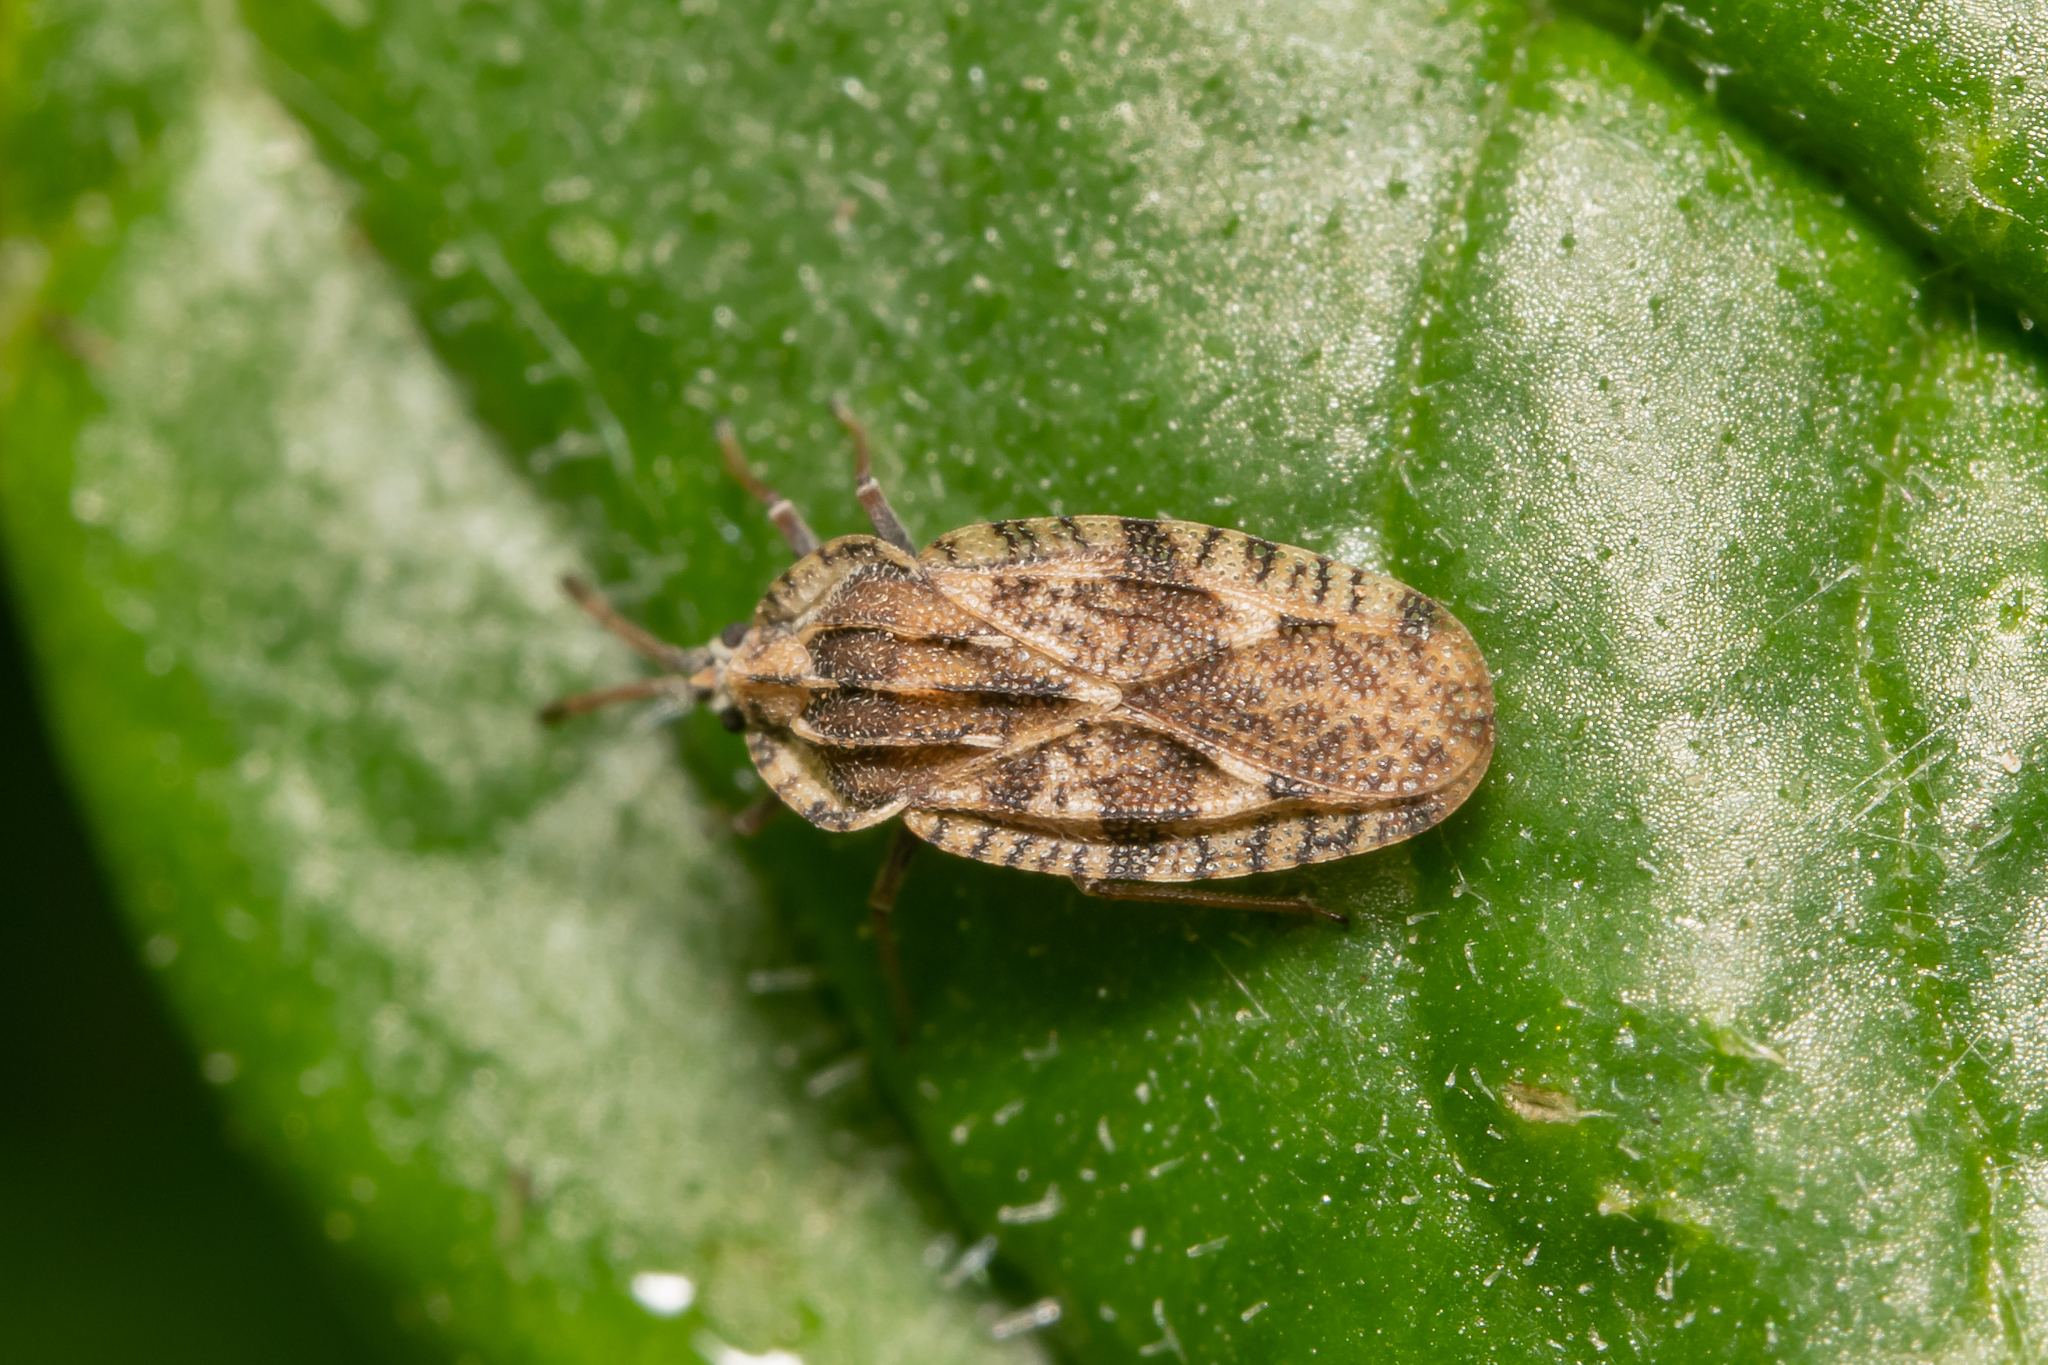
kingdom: Animalia
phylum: Arthropoda
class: Insecta
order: Hemiptera
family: Tingidae
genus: Tingis
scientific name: Tingis cardui
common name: Spear thistle lacebug
